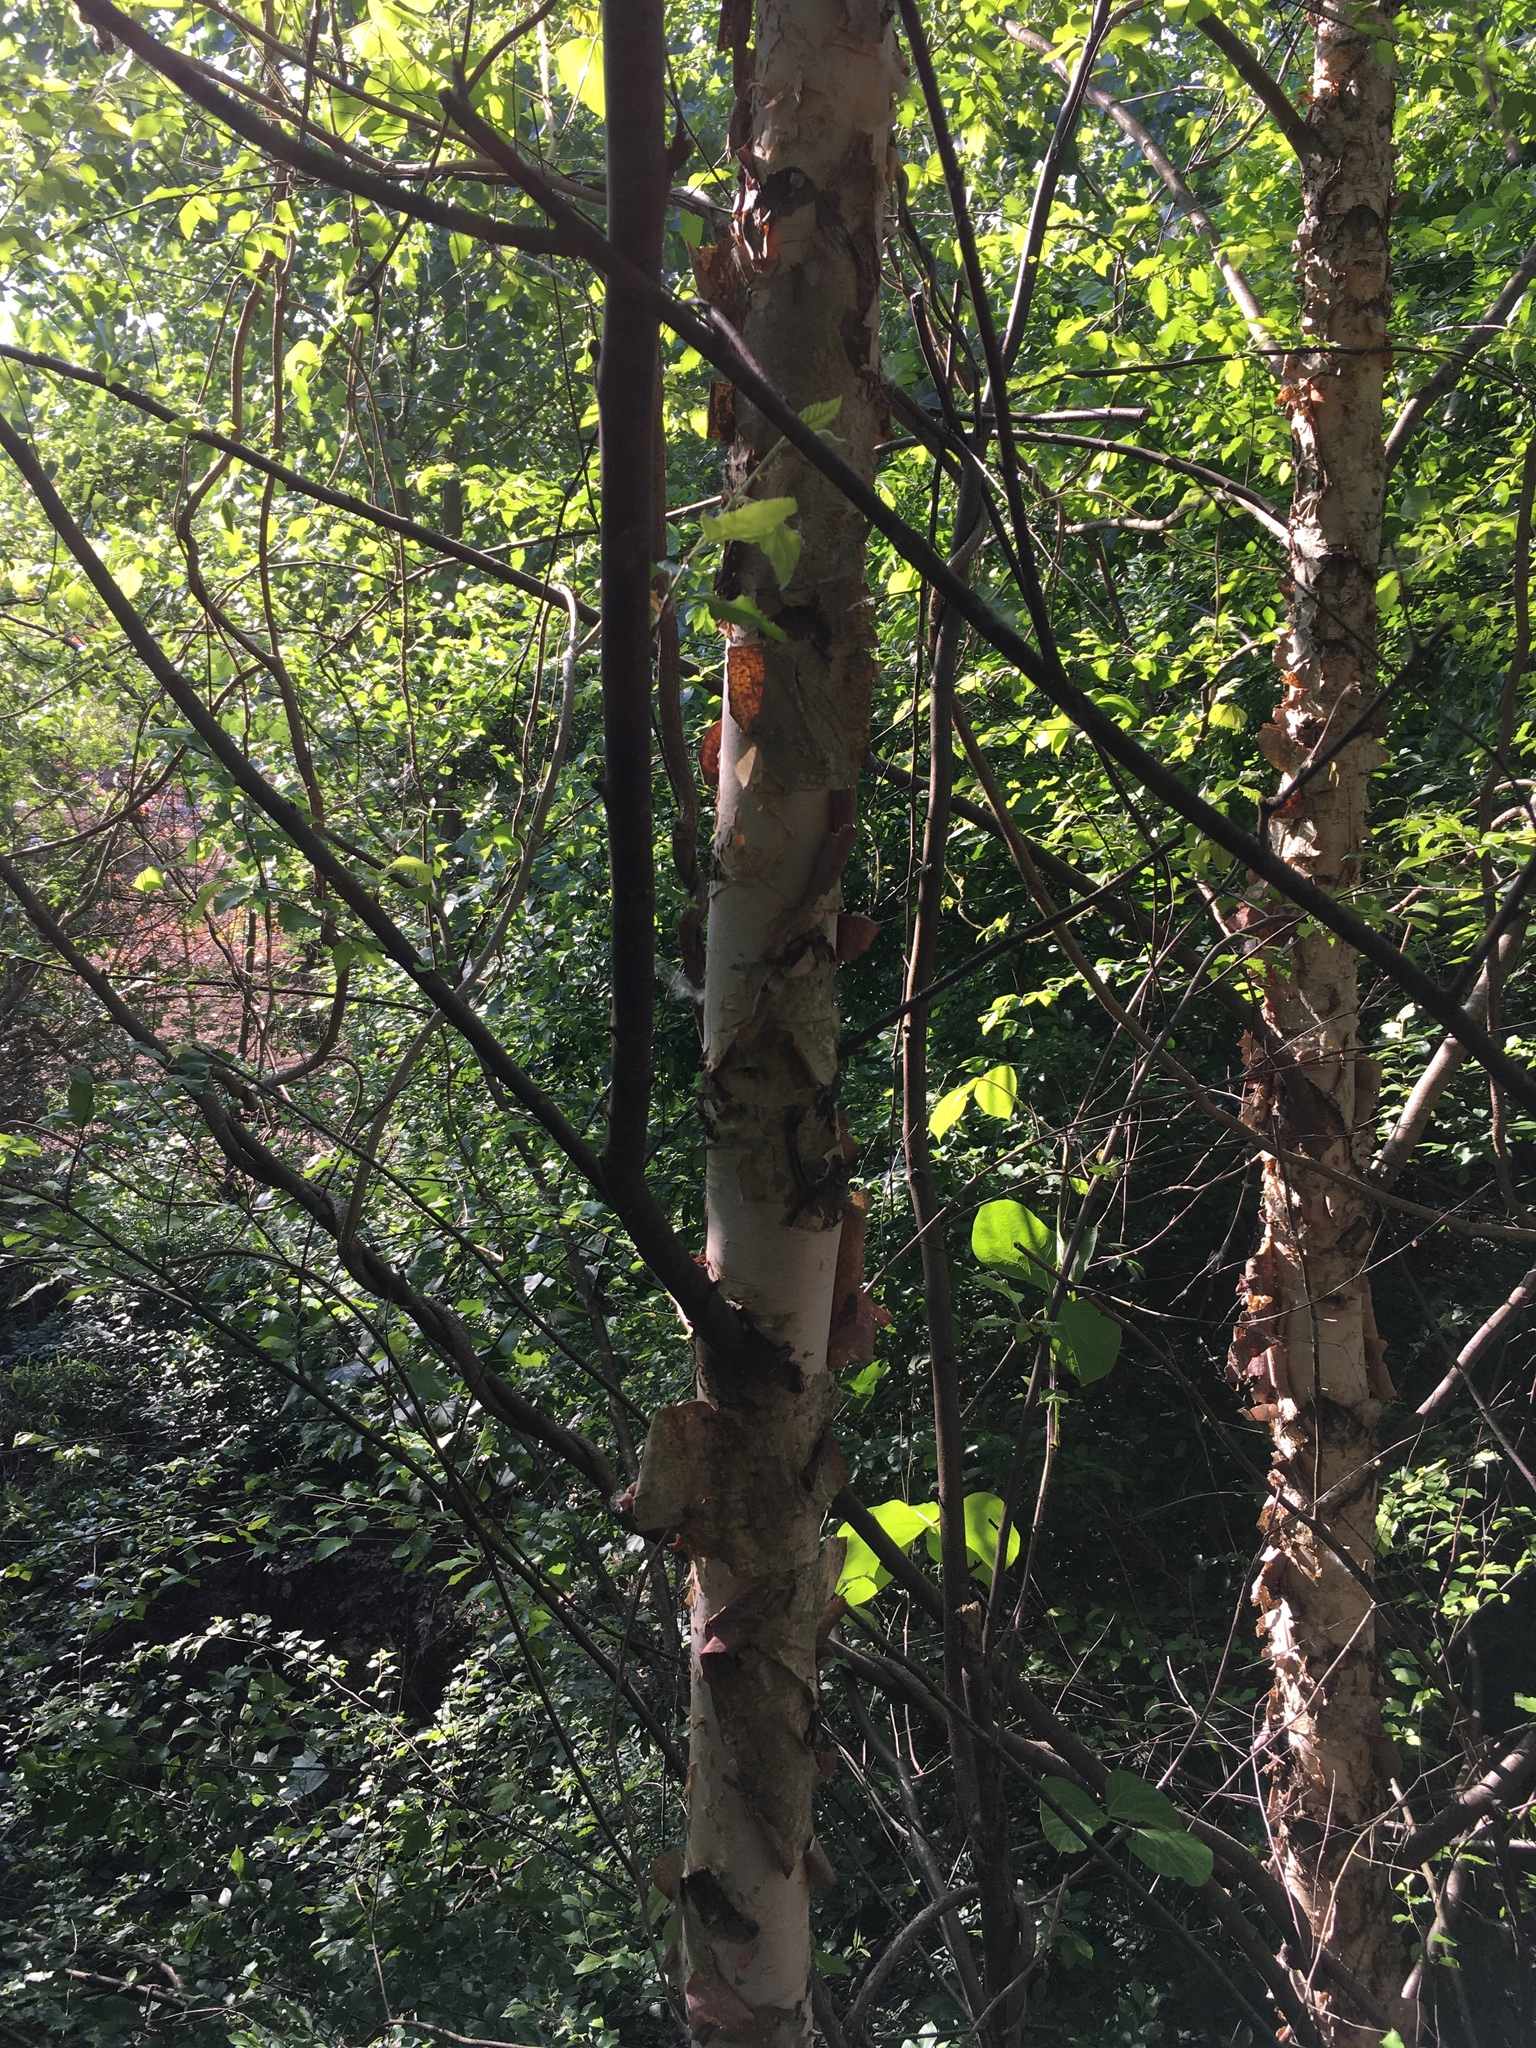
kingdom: Plantae
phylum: Tracheophyta
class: Magnoliopsida
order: Fagales
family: Betulaceae
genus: Betula
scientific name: Betula nigra
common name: Black birch
